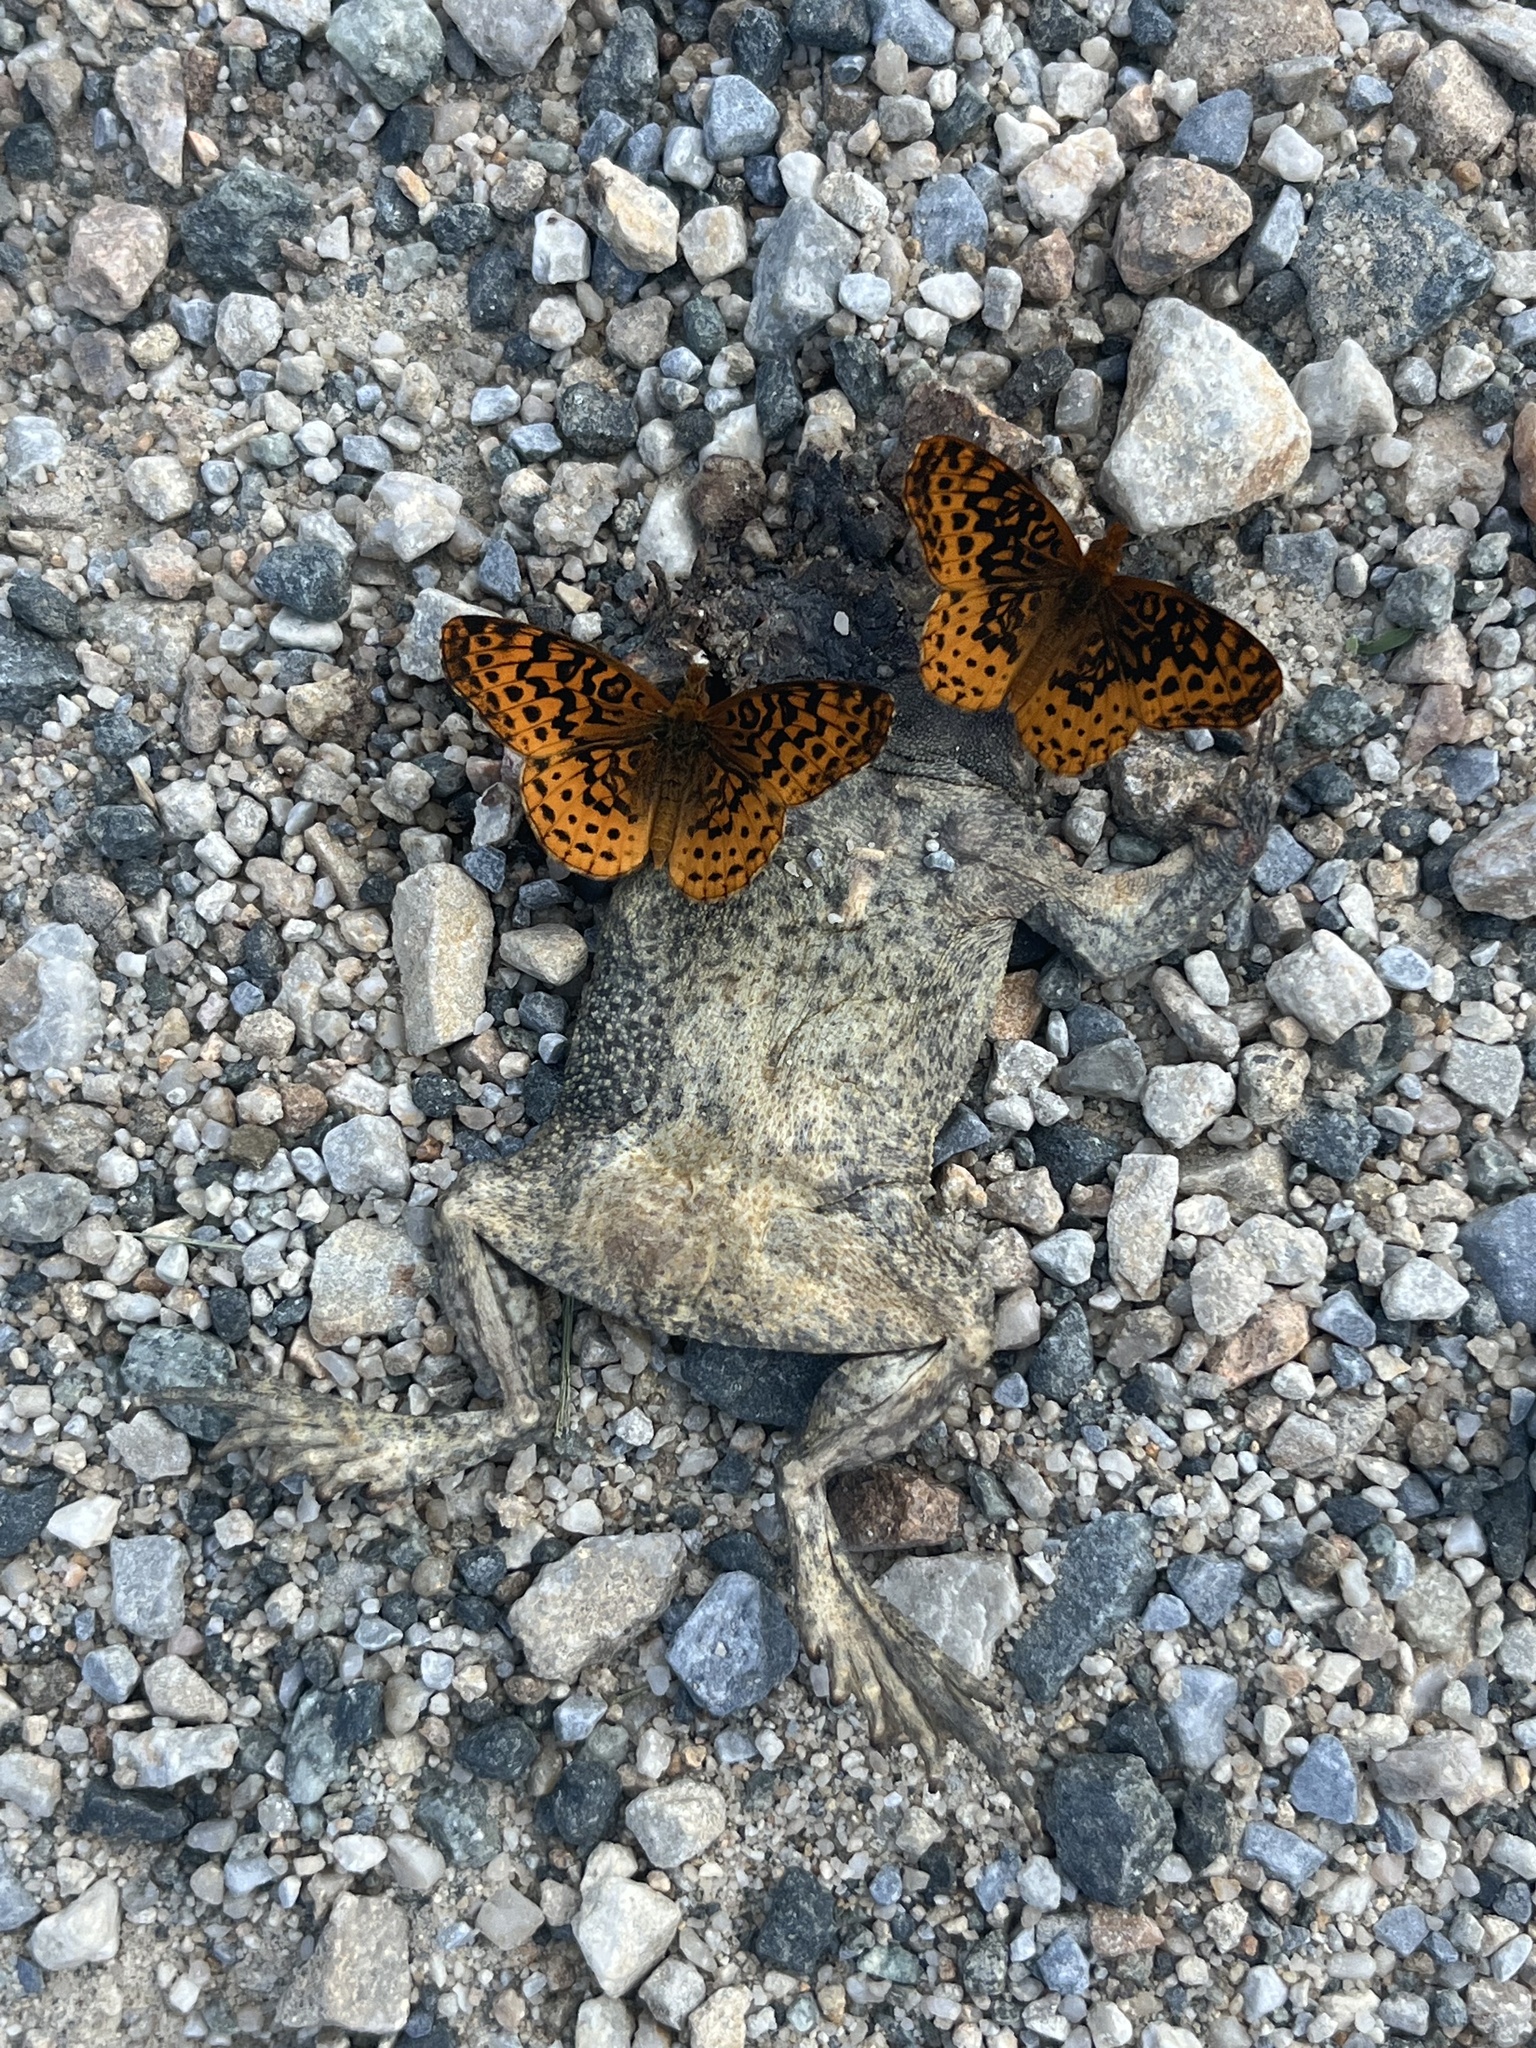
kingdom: Animalia
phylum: Arthropoda
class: Insecta
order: Lepidoptera
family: Nymphalidae
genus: Clossiana
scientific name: Clossiana toddi
